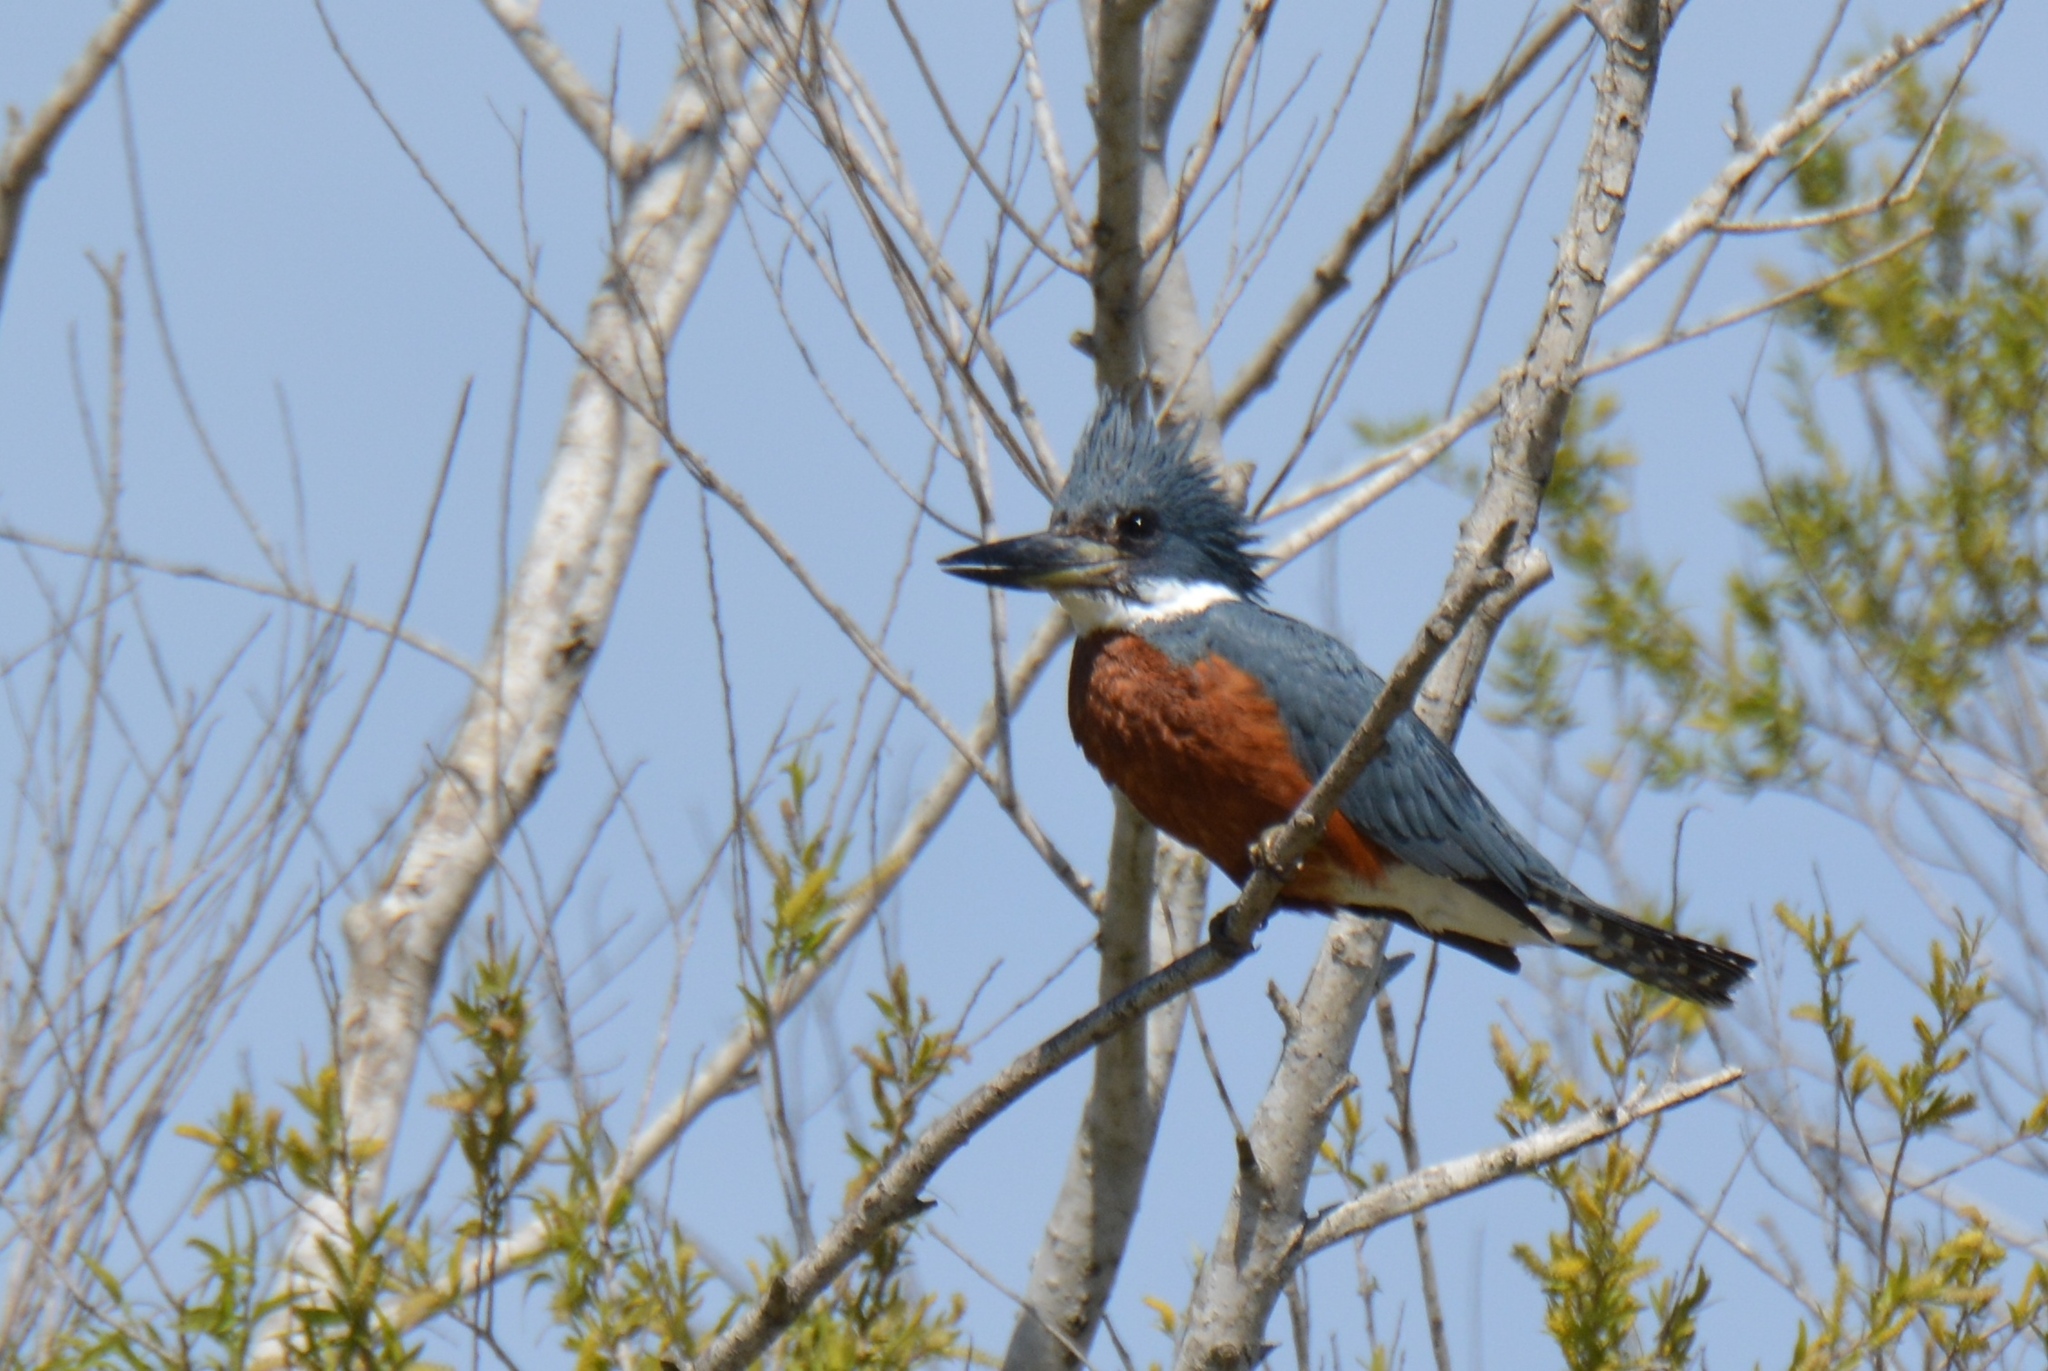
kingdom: Animalia
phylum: Chordata
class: Aves
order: Coraciiformes
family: Alcedinidae
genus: Megaceryle
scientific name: Megaceryle torquata
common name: Ringed kingfisher
